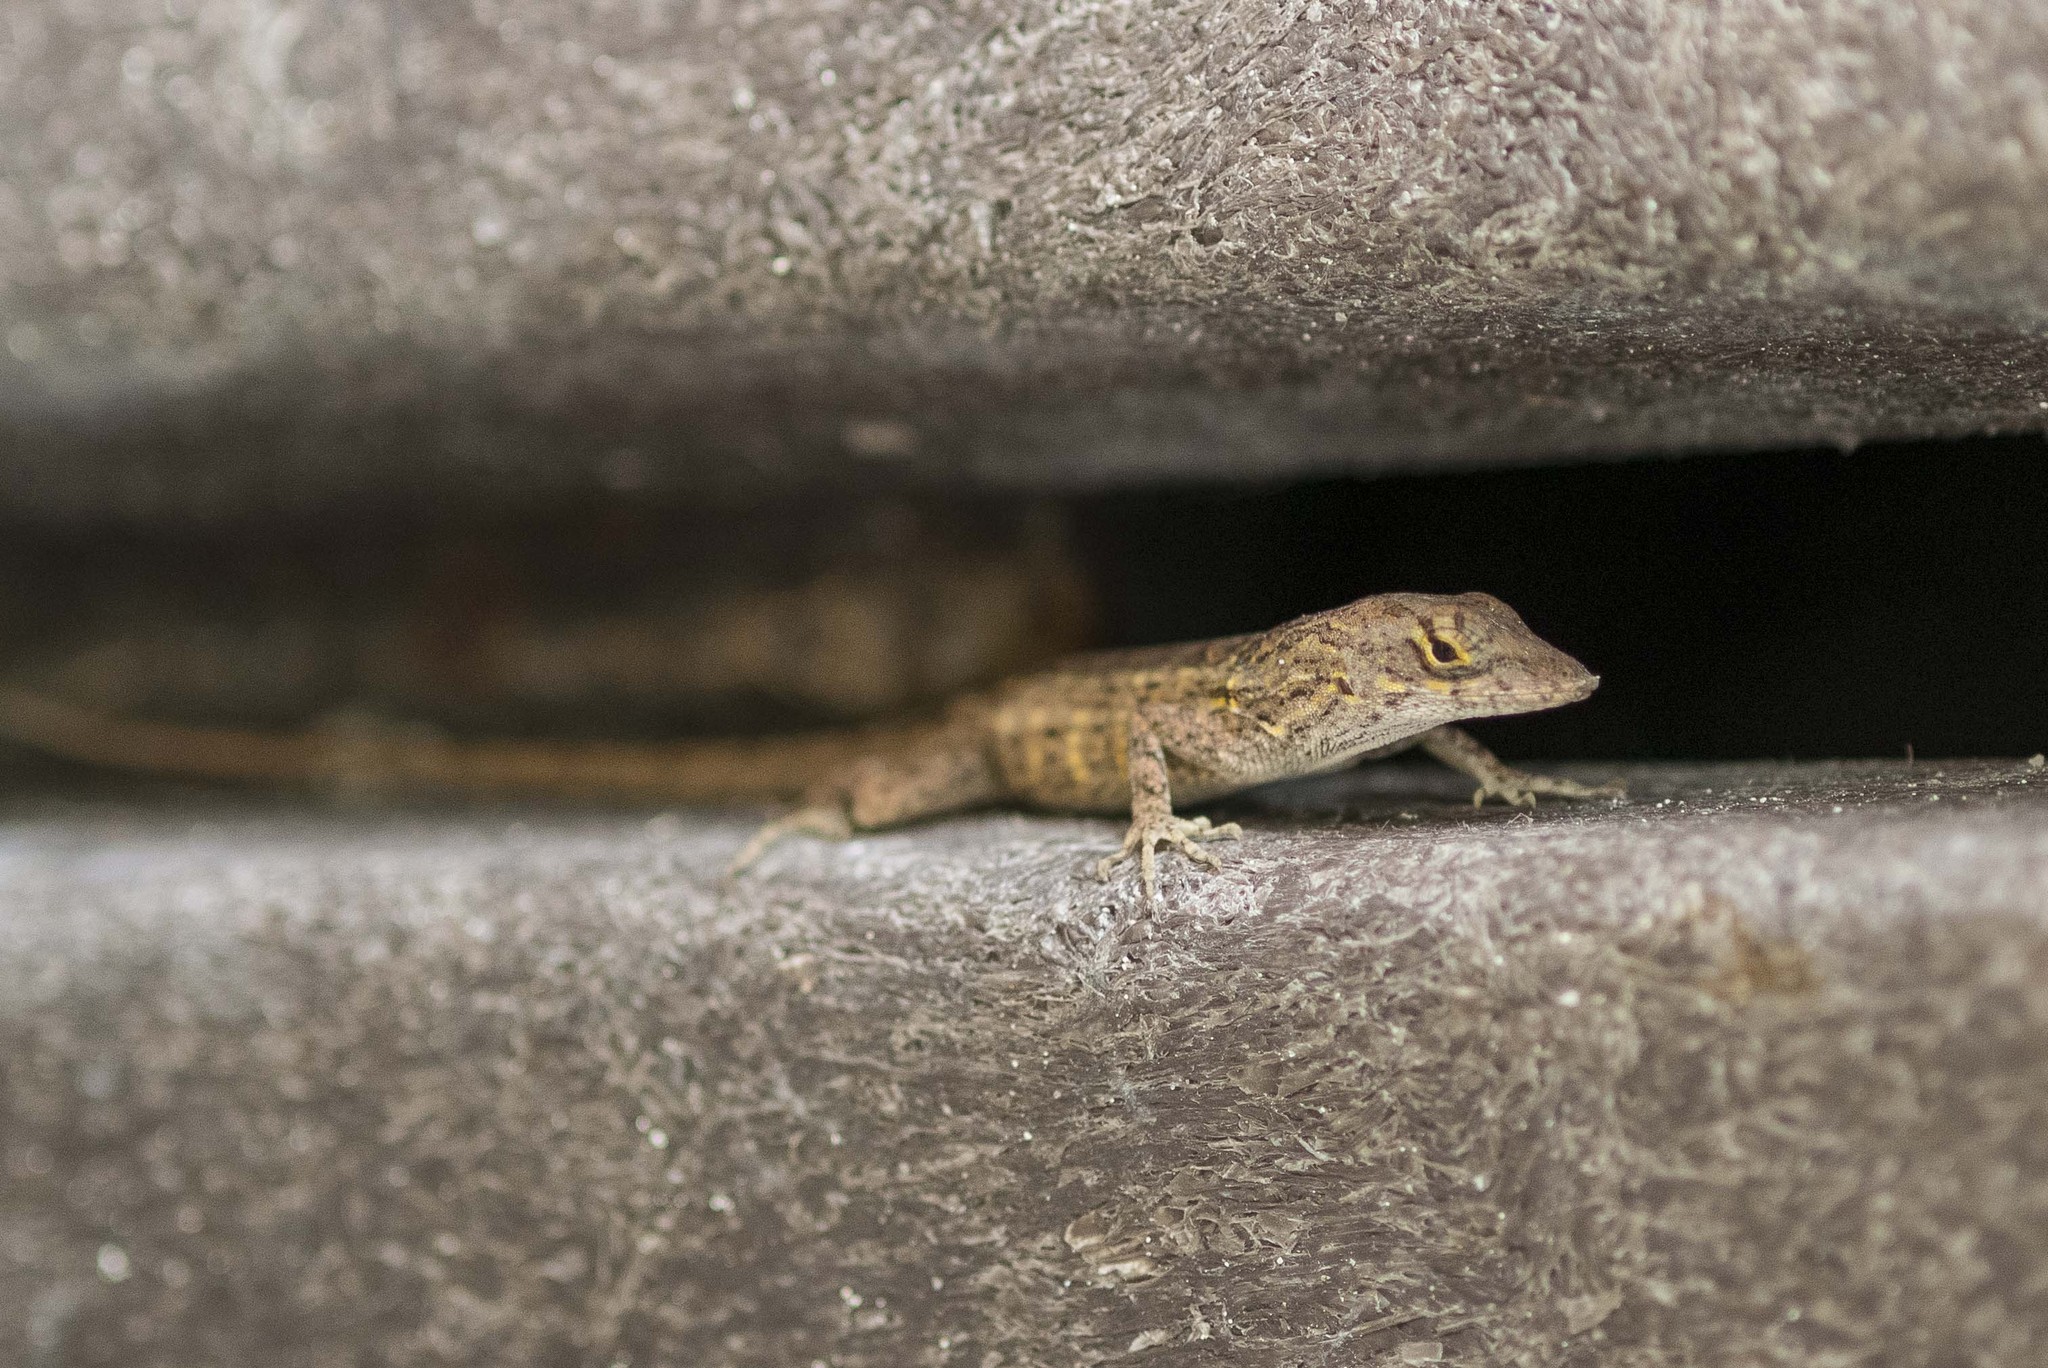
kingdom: Animalia
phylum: Chordata
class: Squamata
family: Dactyloidae
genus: Anolis
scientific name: Anolis sagrei
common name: Brown anole
